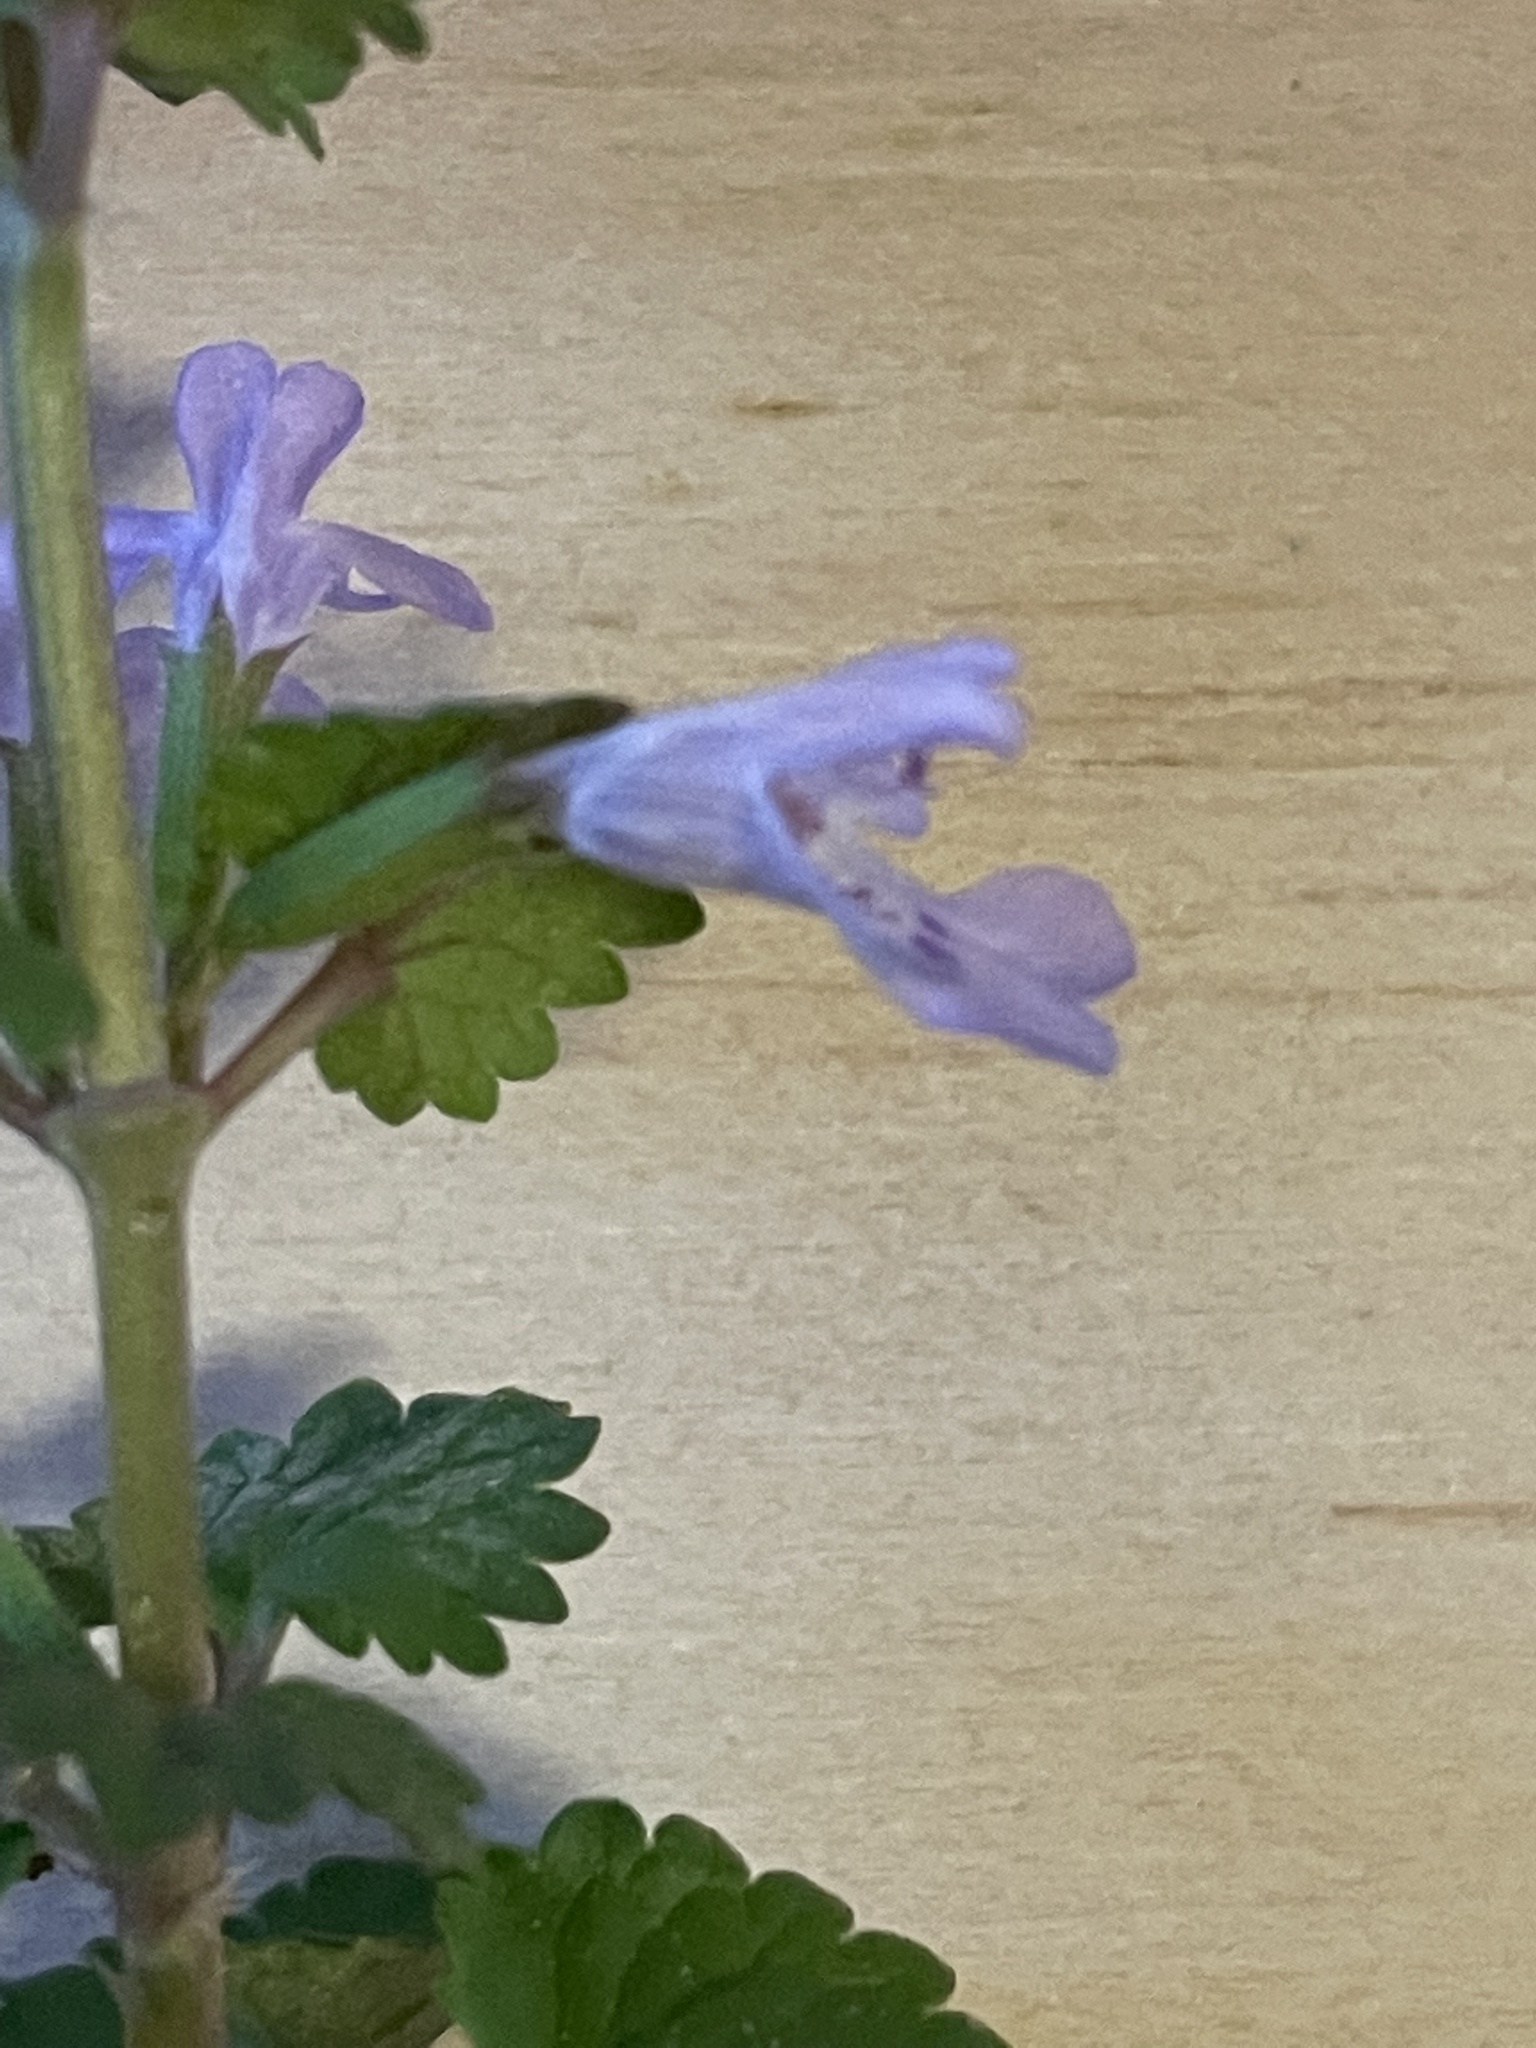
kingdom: Plantae
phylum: Tracheophyta
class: Magnoliopsida
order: Lamiales
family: Lamiaceae
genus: Glechoma
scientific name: Glechoma hederacea
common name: Ground ivy
